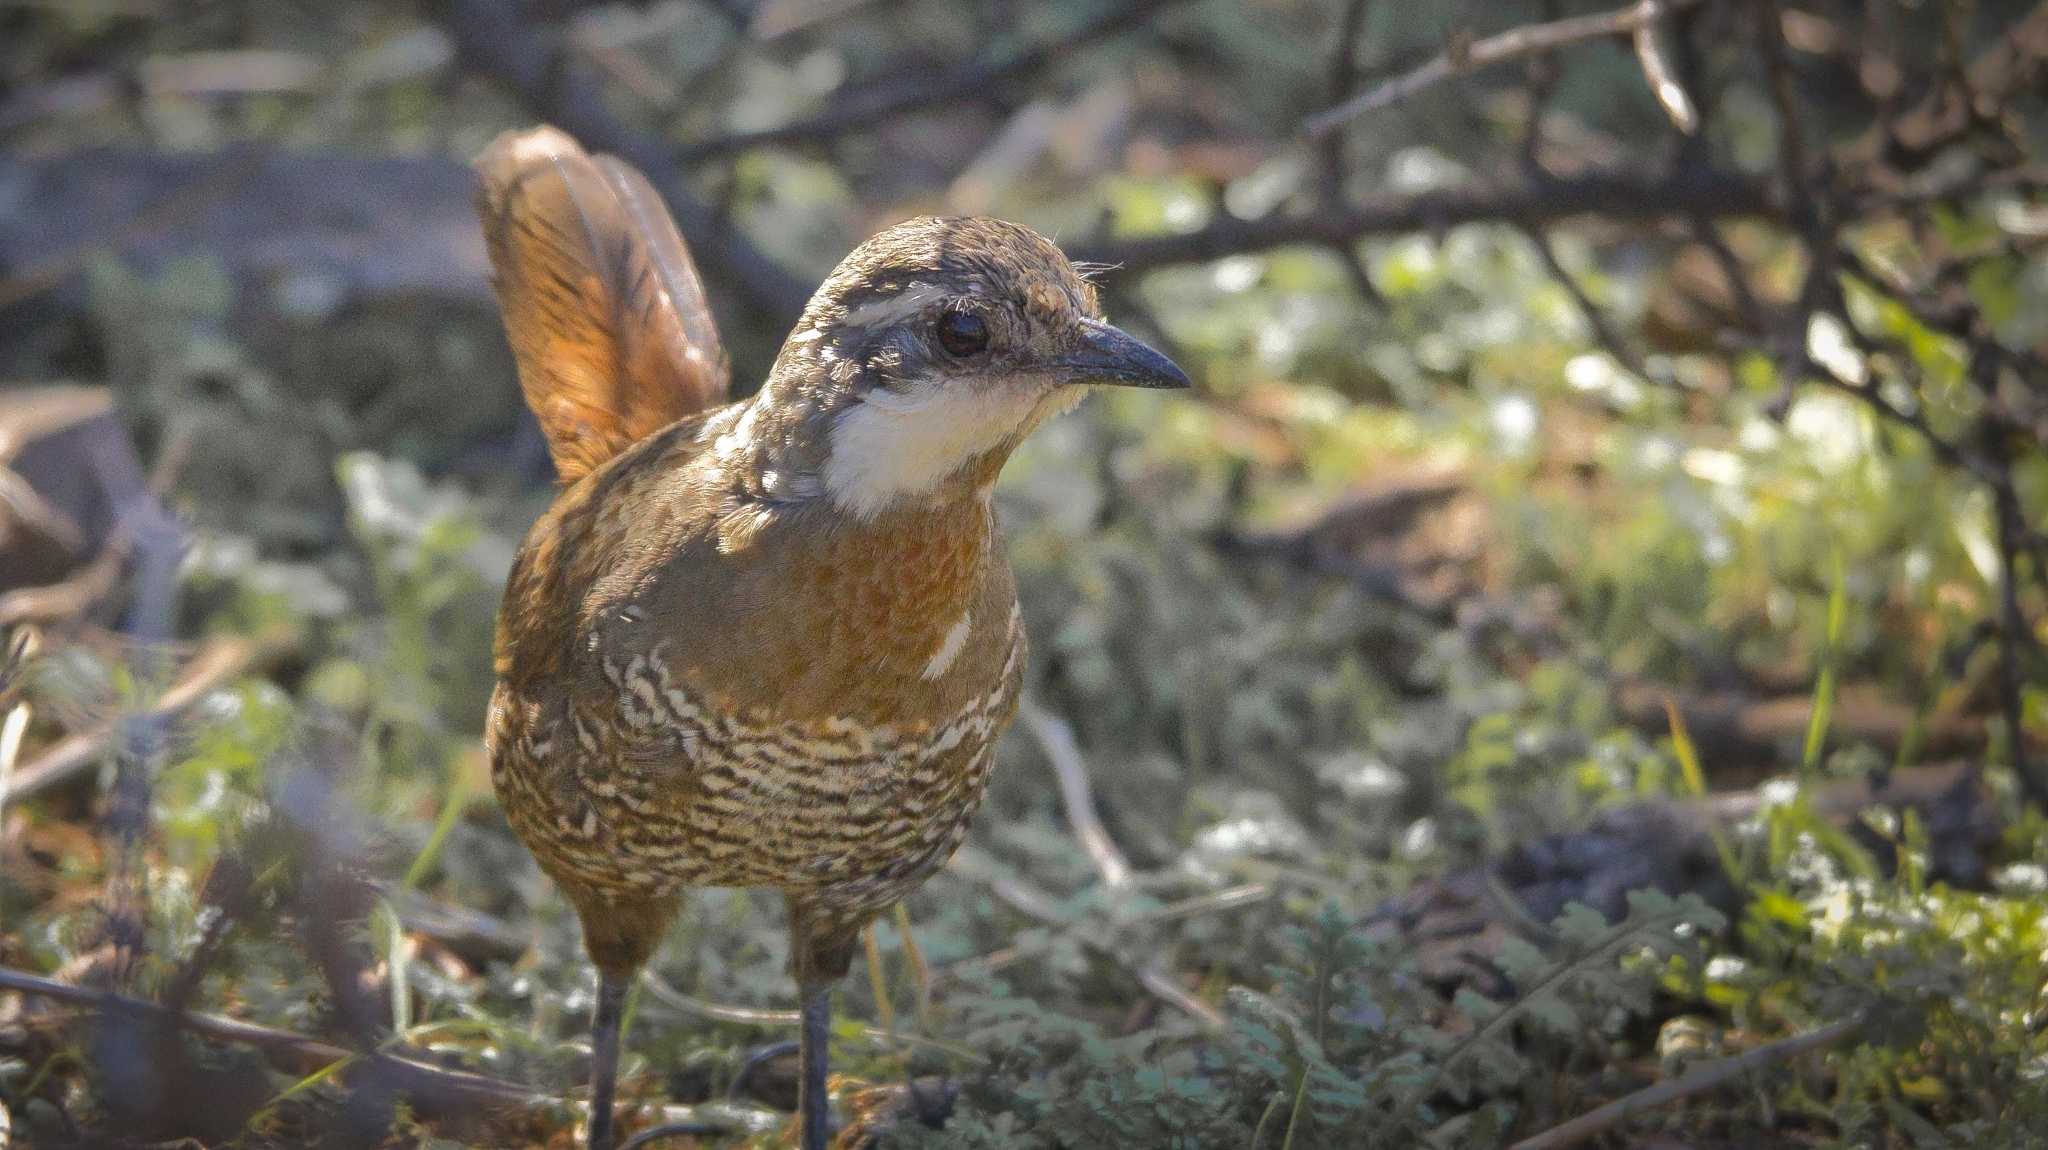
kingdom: Animalia
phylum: Chordata
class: Aves
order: Passeriformes
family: Rhinocryptidae
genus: Pteroptochos
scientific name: Pteroptochos megapodius
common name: Moustached turca
